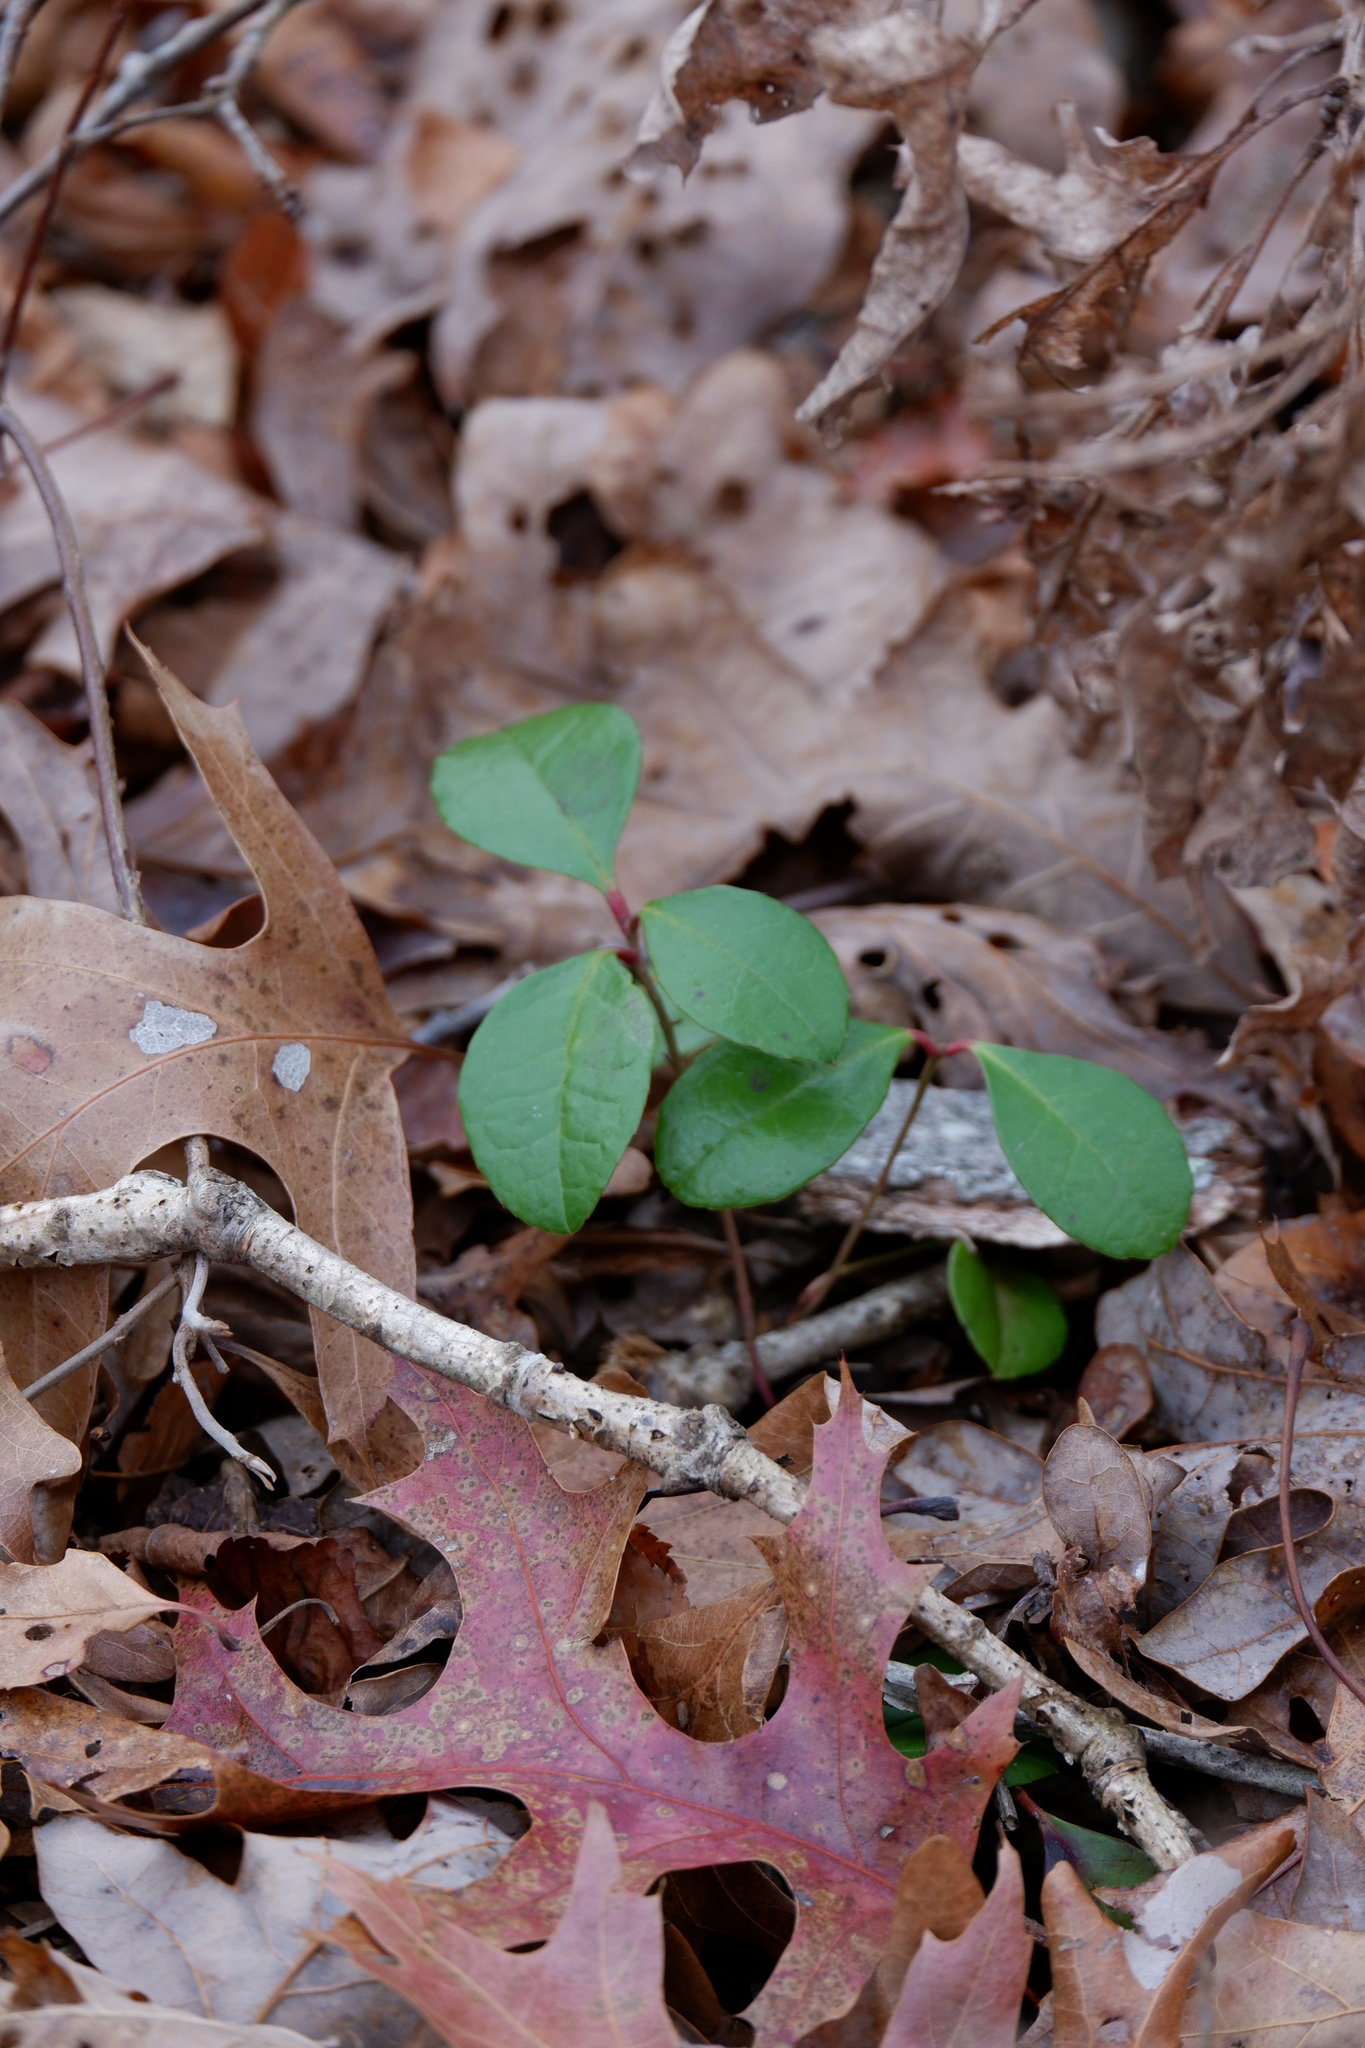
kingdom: Plantae
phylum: Tracheophyta
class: Magnoliopsida
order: Ericales
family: Ericaceae
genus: Gaultheria
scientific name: Gaultheria procumbens
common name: Checkerberry
